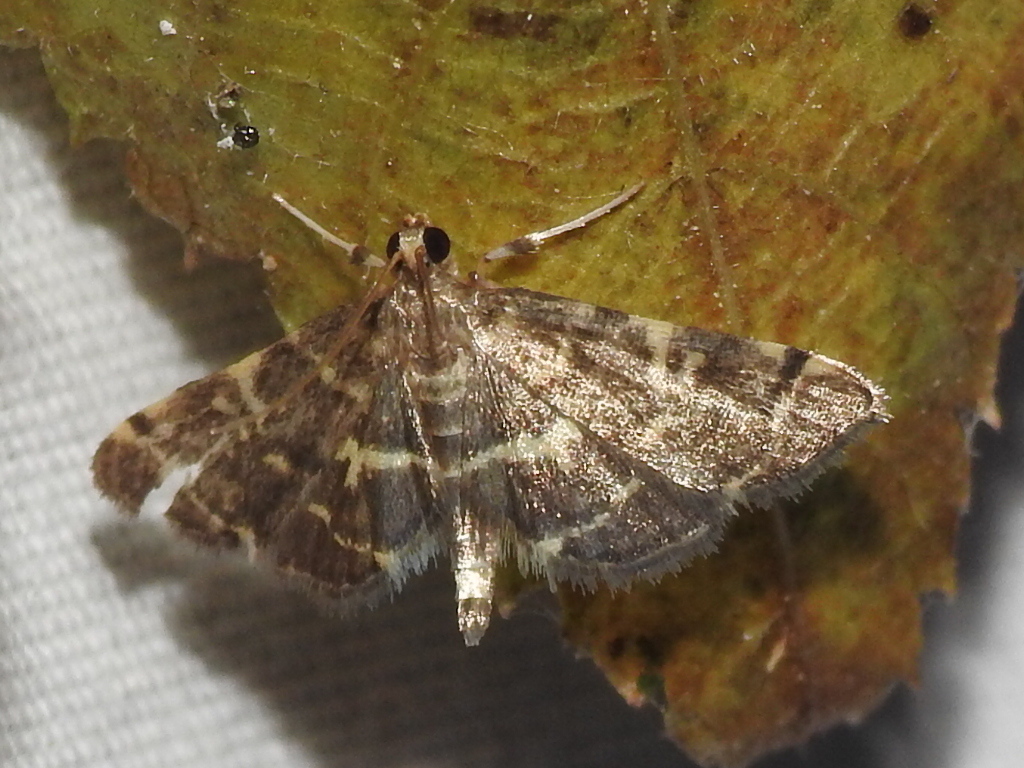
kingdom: Animalia
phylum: Arthropoda
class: Insecta
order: Lepidoptera
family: Crambidae
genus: Anageshna
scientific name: Anageshna primordialis
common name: Yellow-spotted webworm moth
